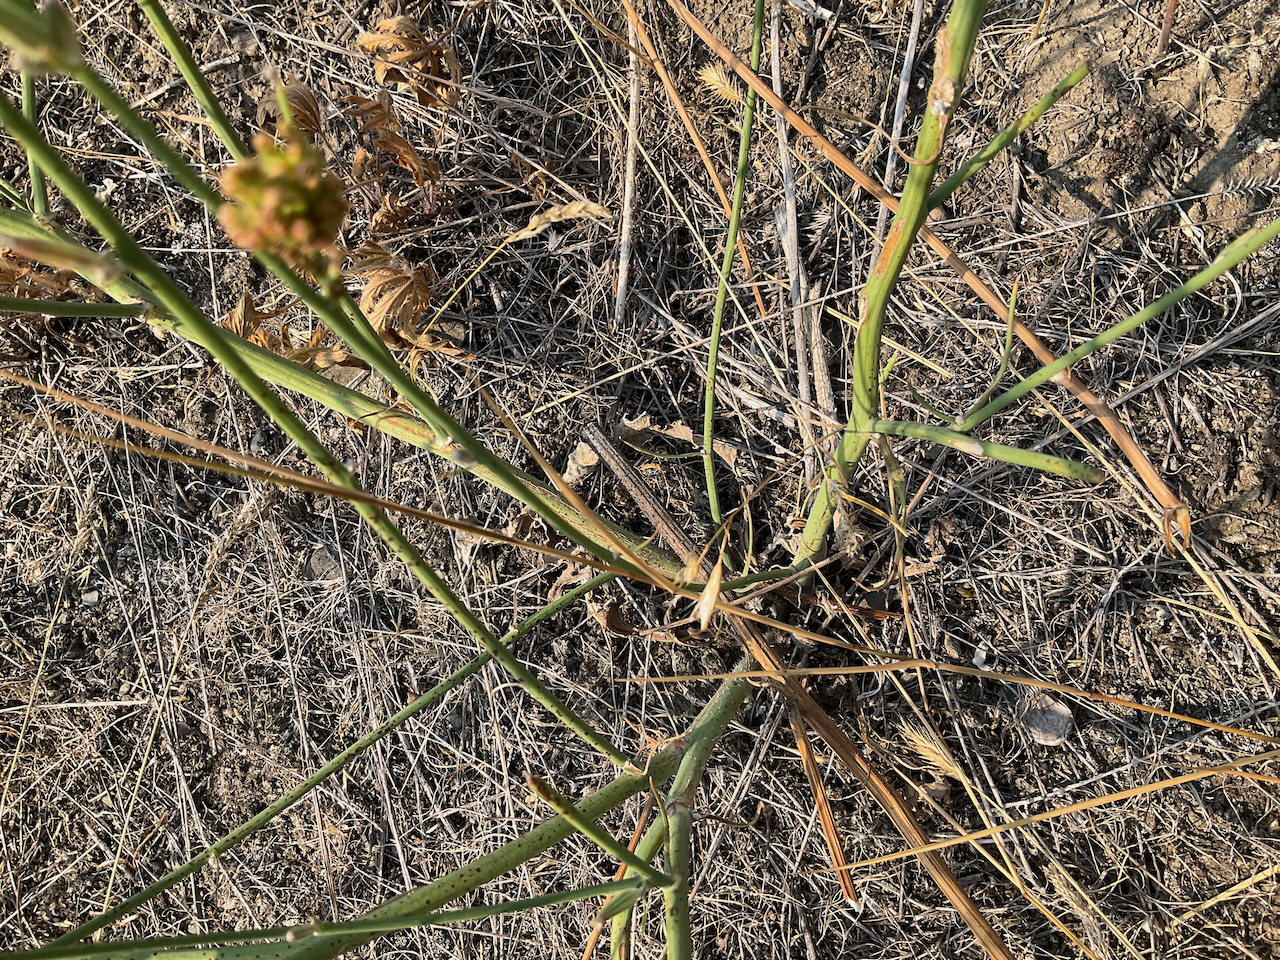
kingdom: Plantae
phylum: Tracheophyta
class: Magnoliopsida
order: Asterales
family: Asteraceae
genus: Chondrilla
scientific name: Chondrilla juncea
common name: Skeleton weed
